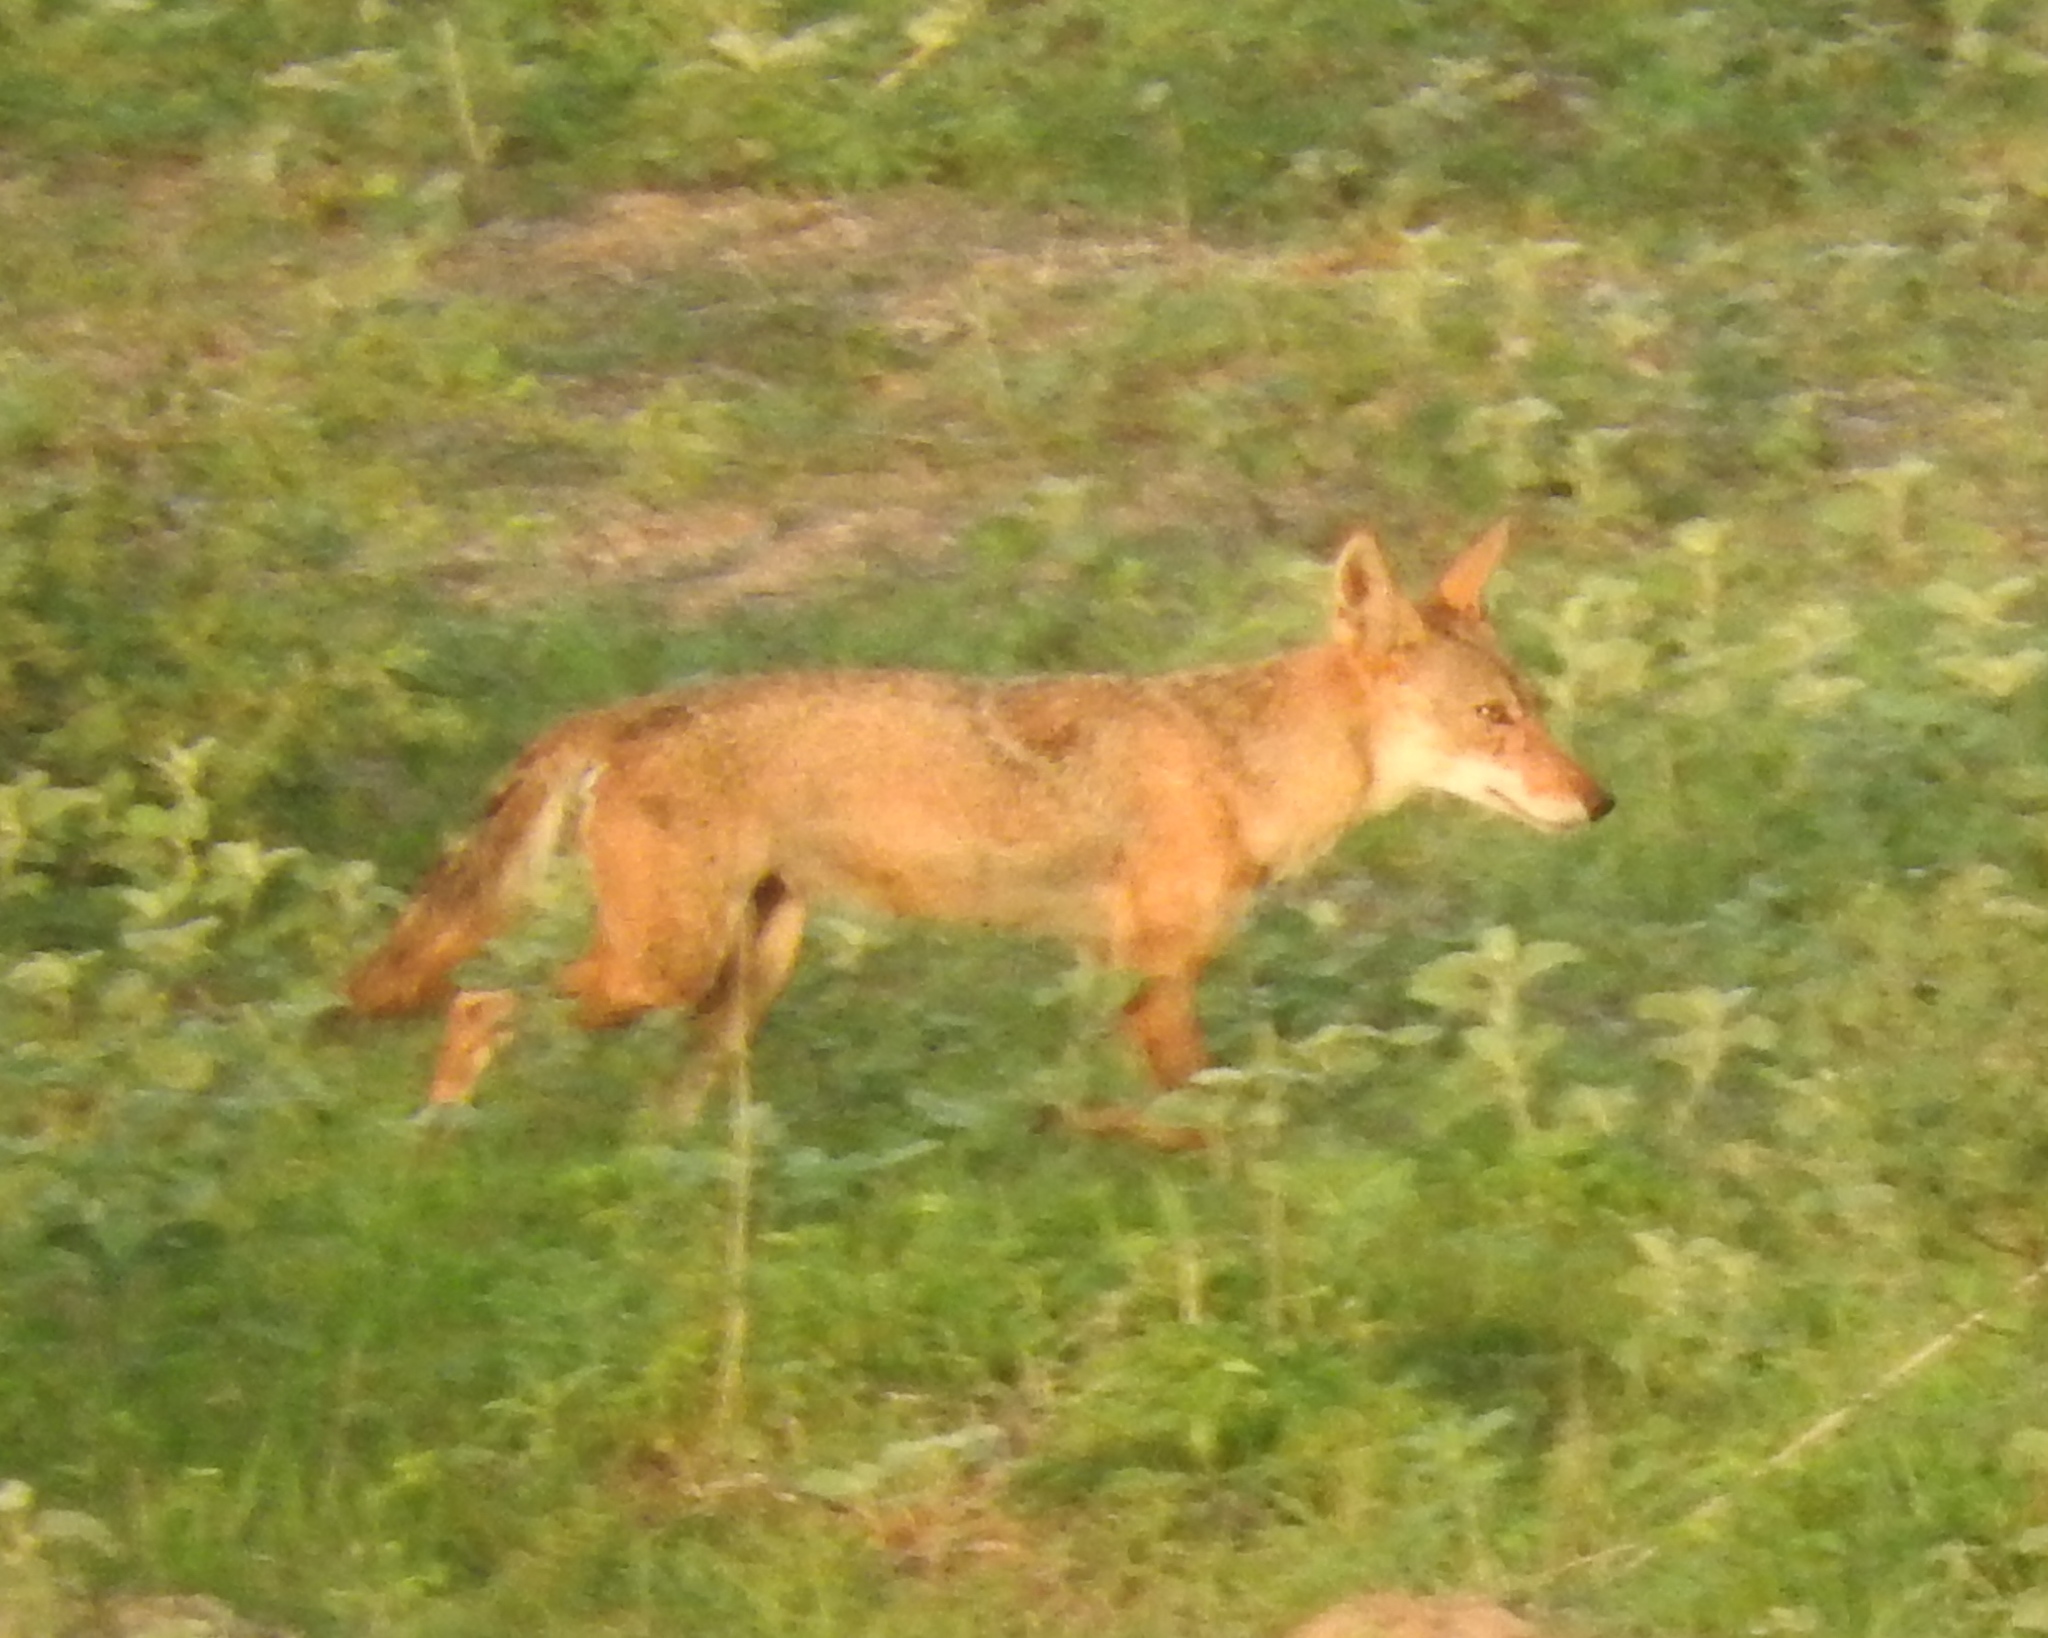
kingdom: Animalia
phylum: Chordata
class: Mammalia
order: Carnivora
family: Canidae
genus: Canis
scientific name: Canis latrans
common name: Coyote
